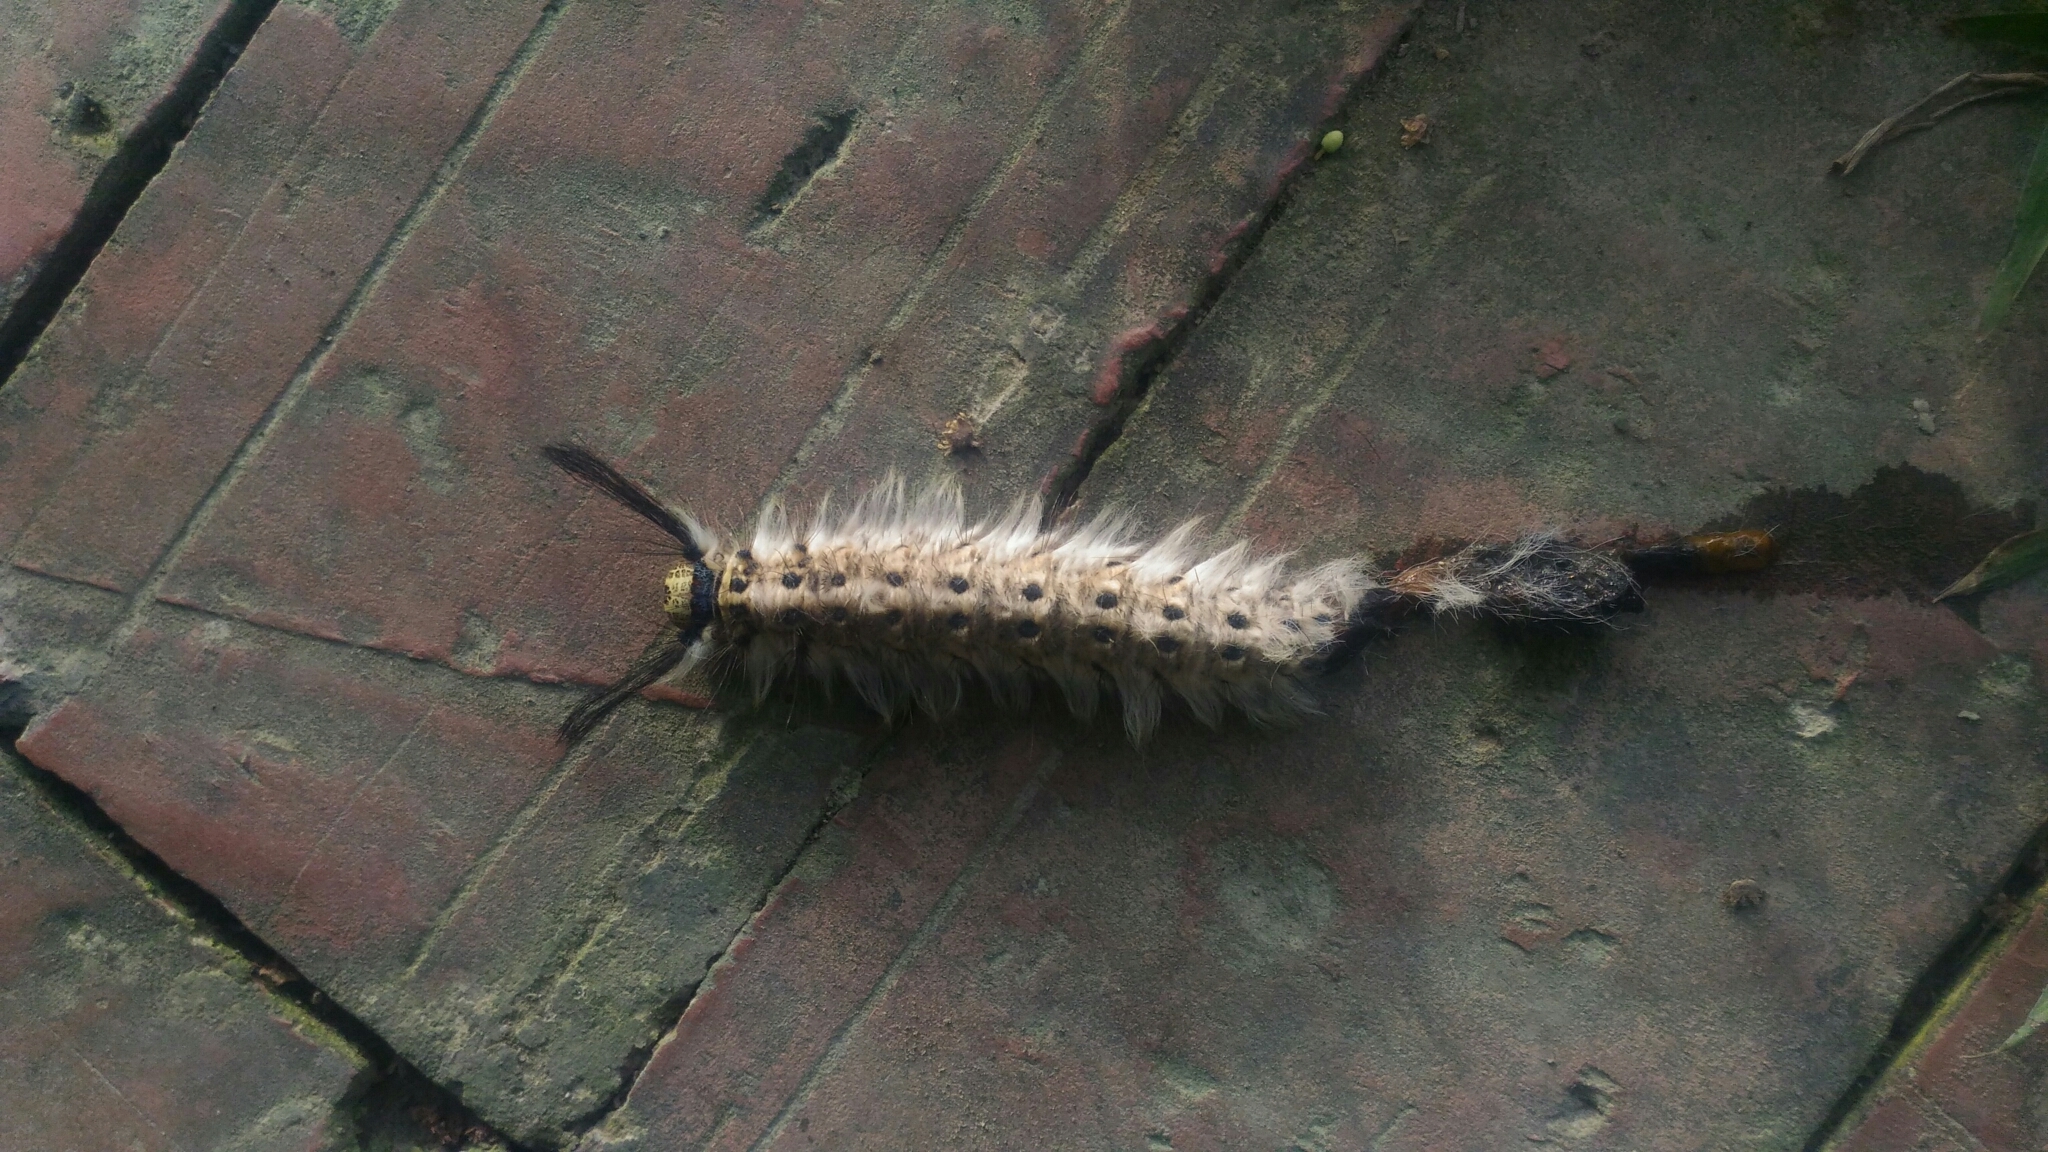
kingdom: Animalia
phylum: Arthropoda
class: Insecta
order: Lepidoptera
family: Lasiocampidae
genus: Trabala
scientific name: Trabala vishnou
